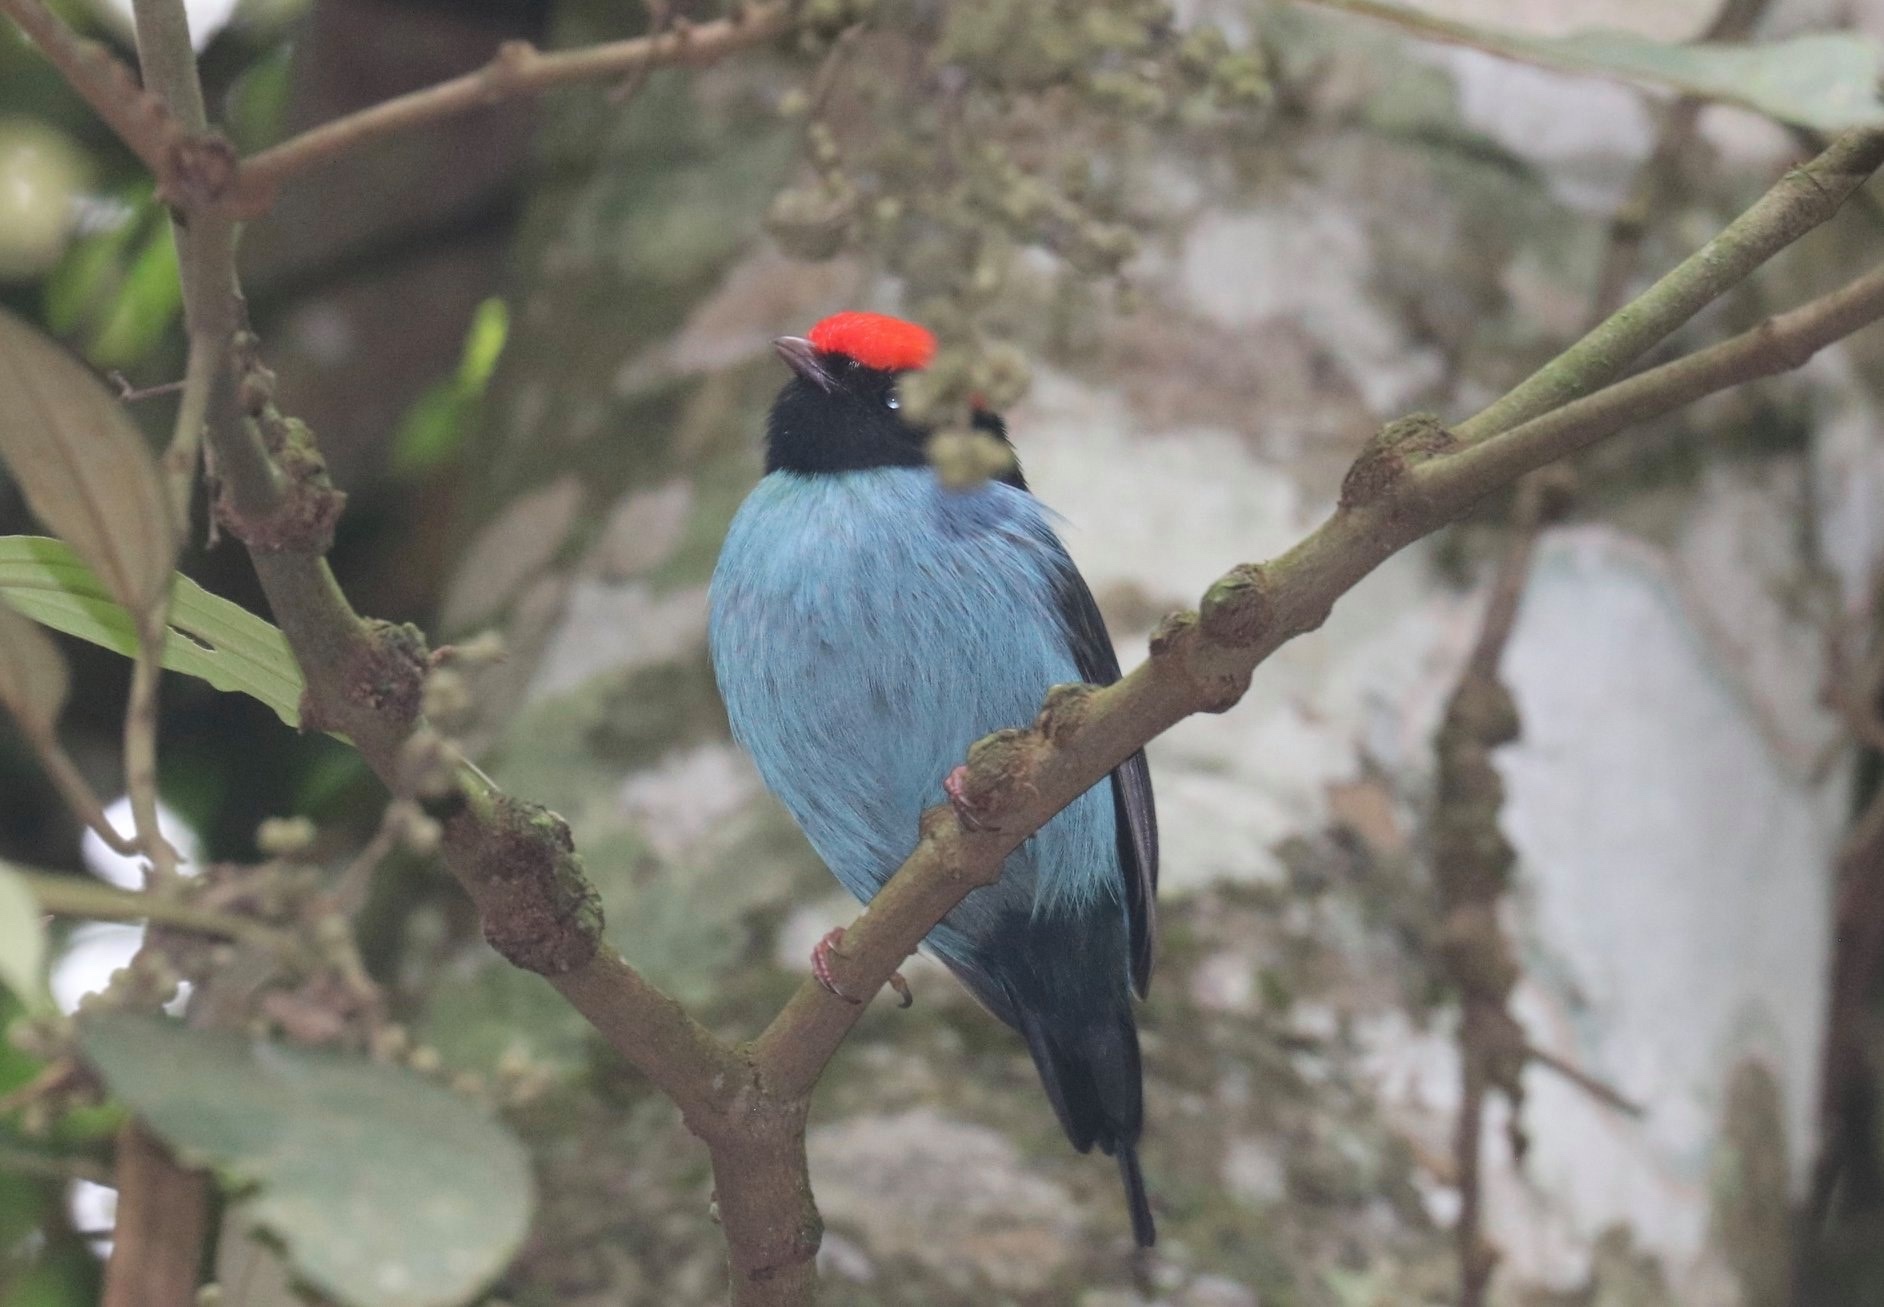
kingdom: Animalia
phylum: Chordata
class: Aves
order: Passeriformes
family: Pipridae
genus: Chiroxiphia
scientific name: Chiroxiphia caudata
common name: Blue manakin
